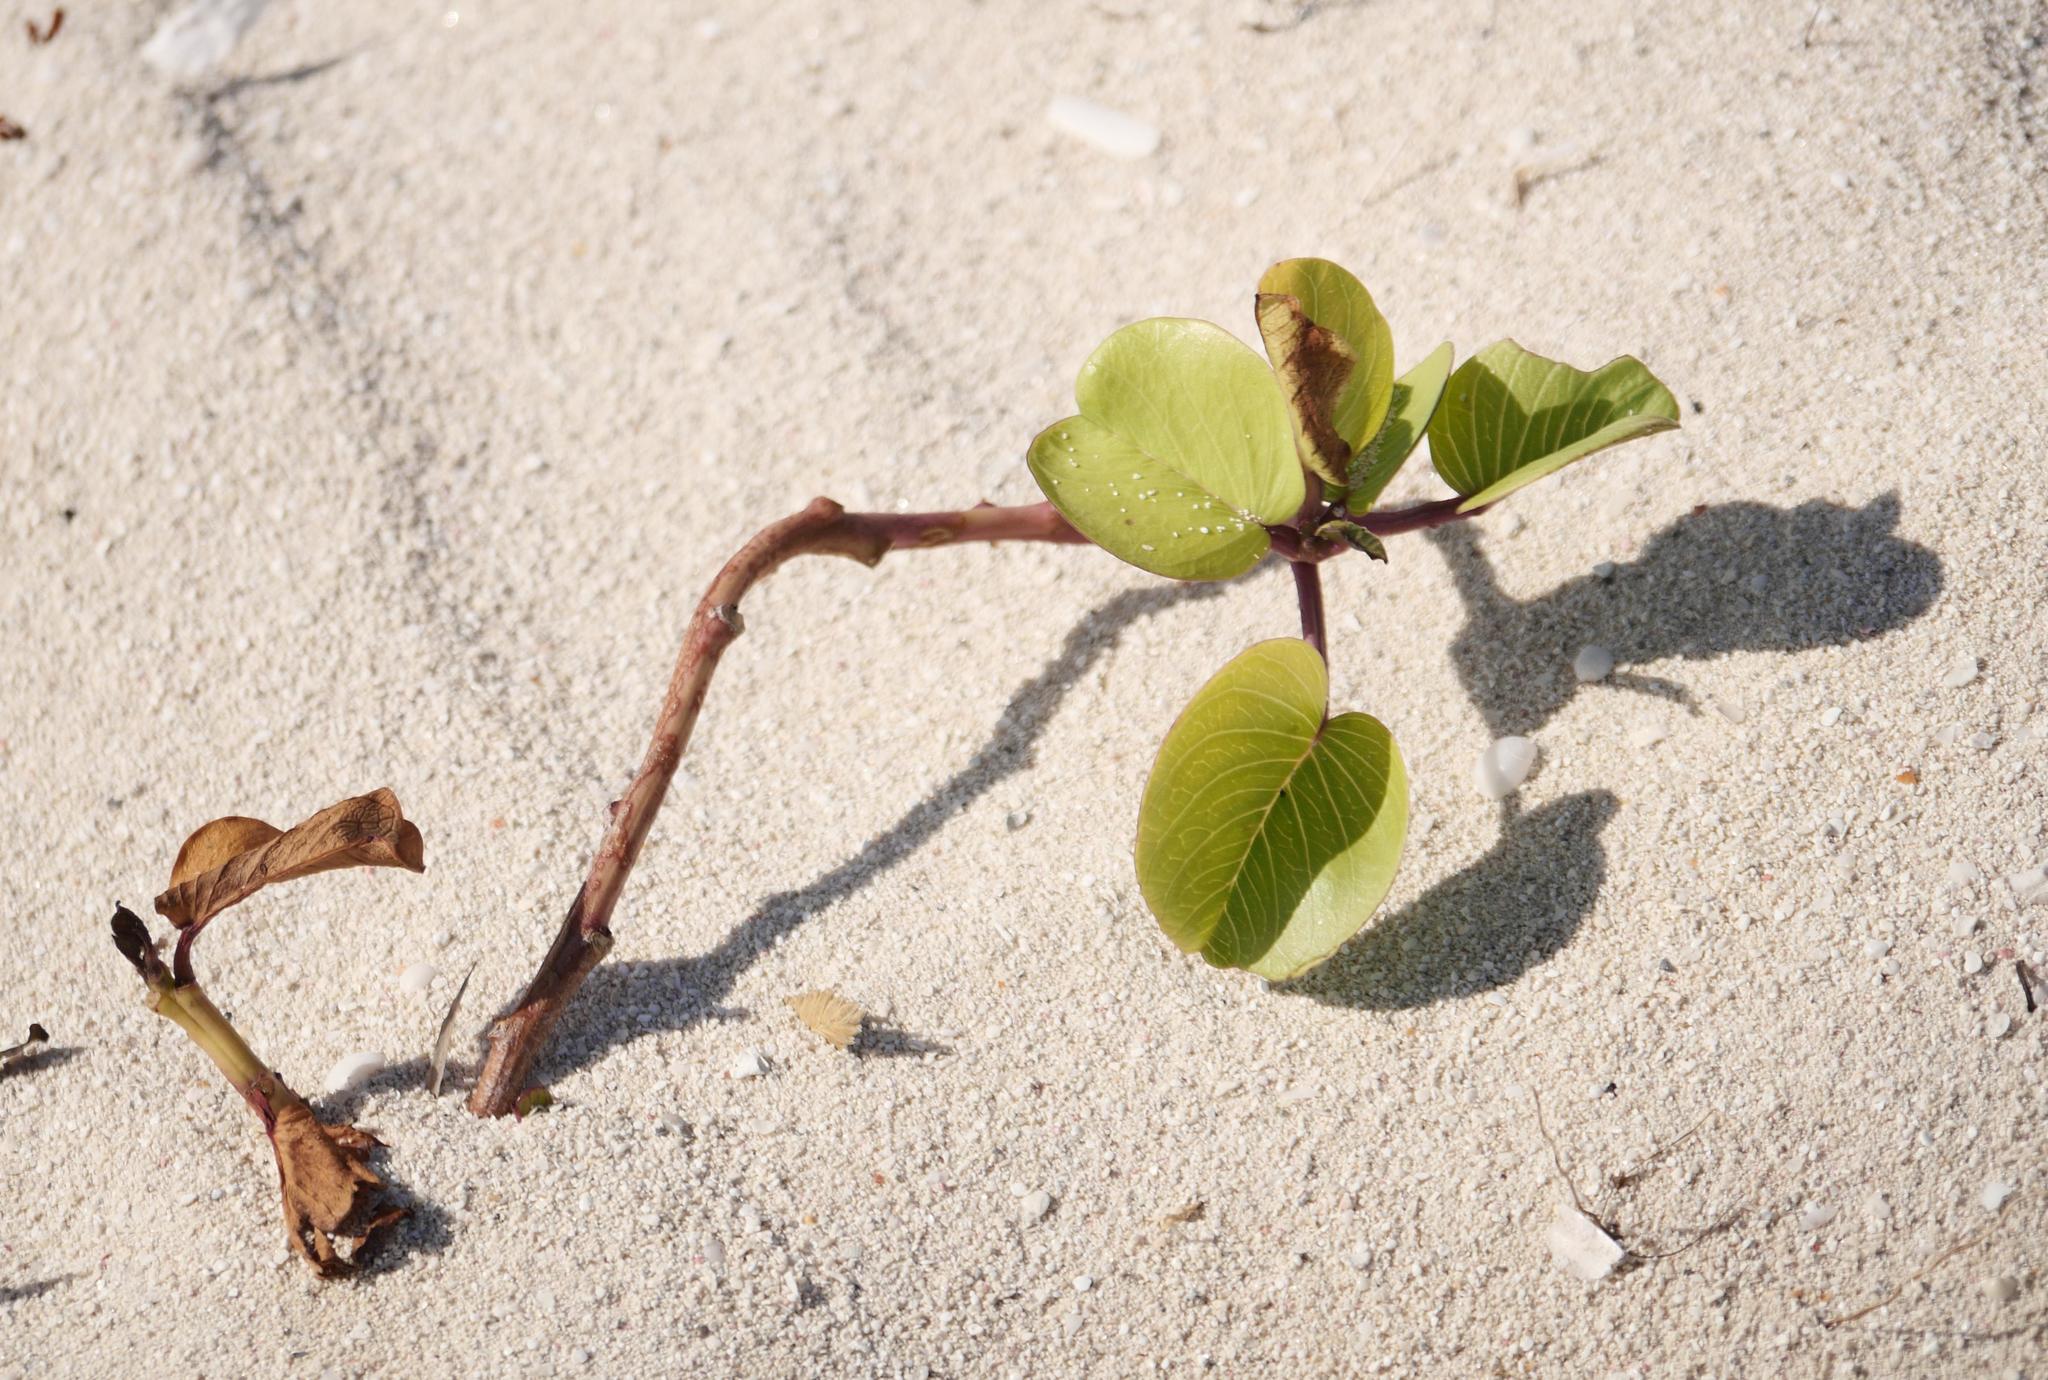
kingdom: Plantae
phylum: Tracheophyta
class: Magnoliopsida
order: Solanales
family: Convolvulaceae
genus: Ipomoea
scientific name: Ipomoea pes-caprae
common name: Beach morning glory
